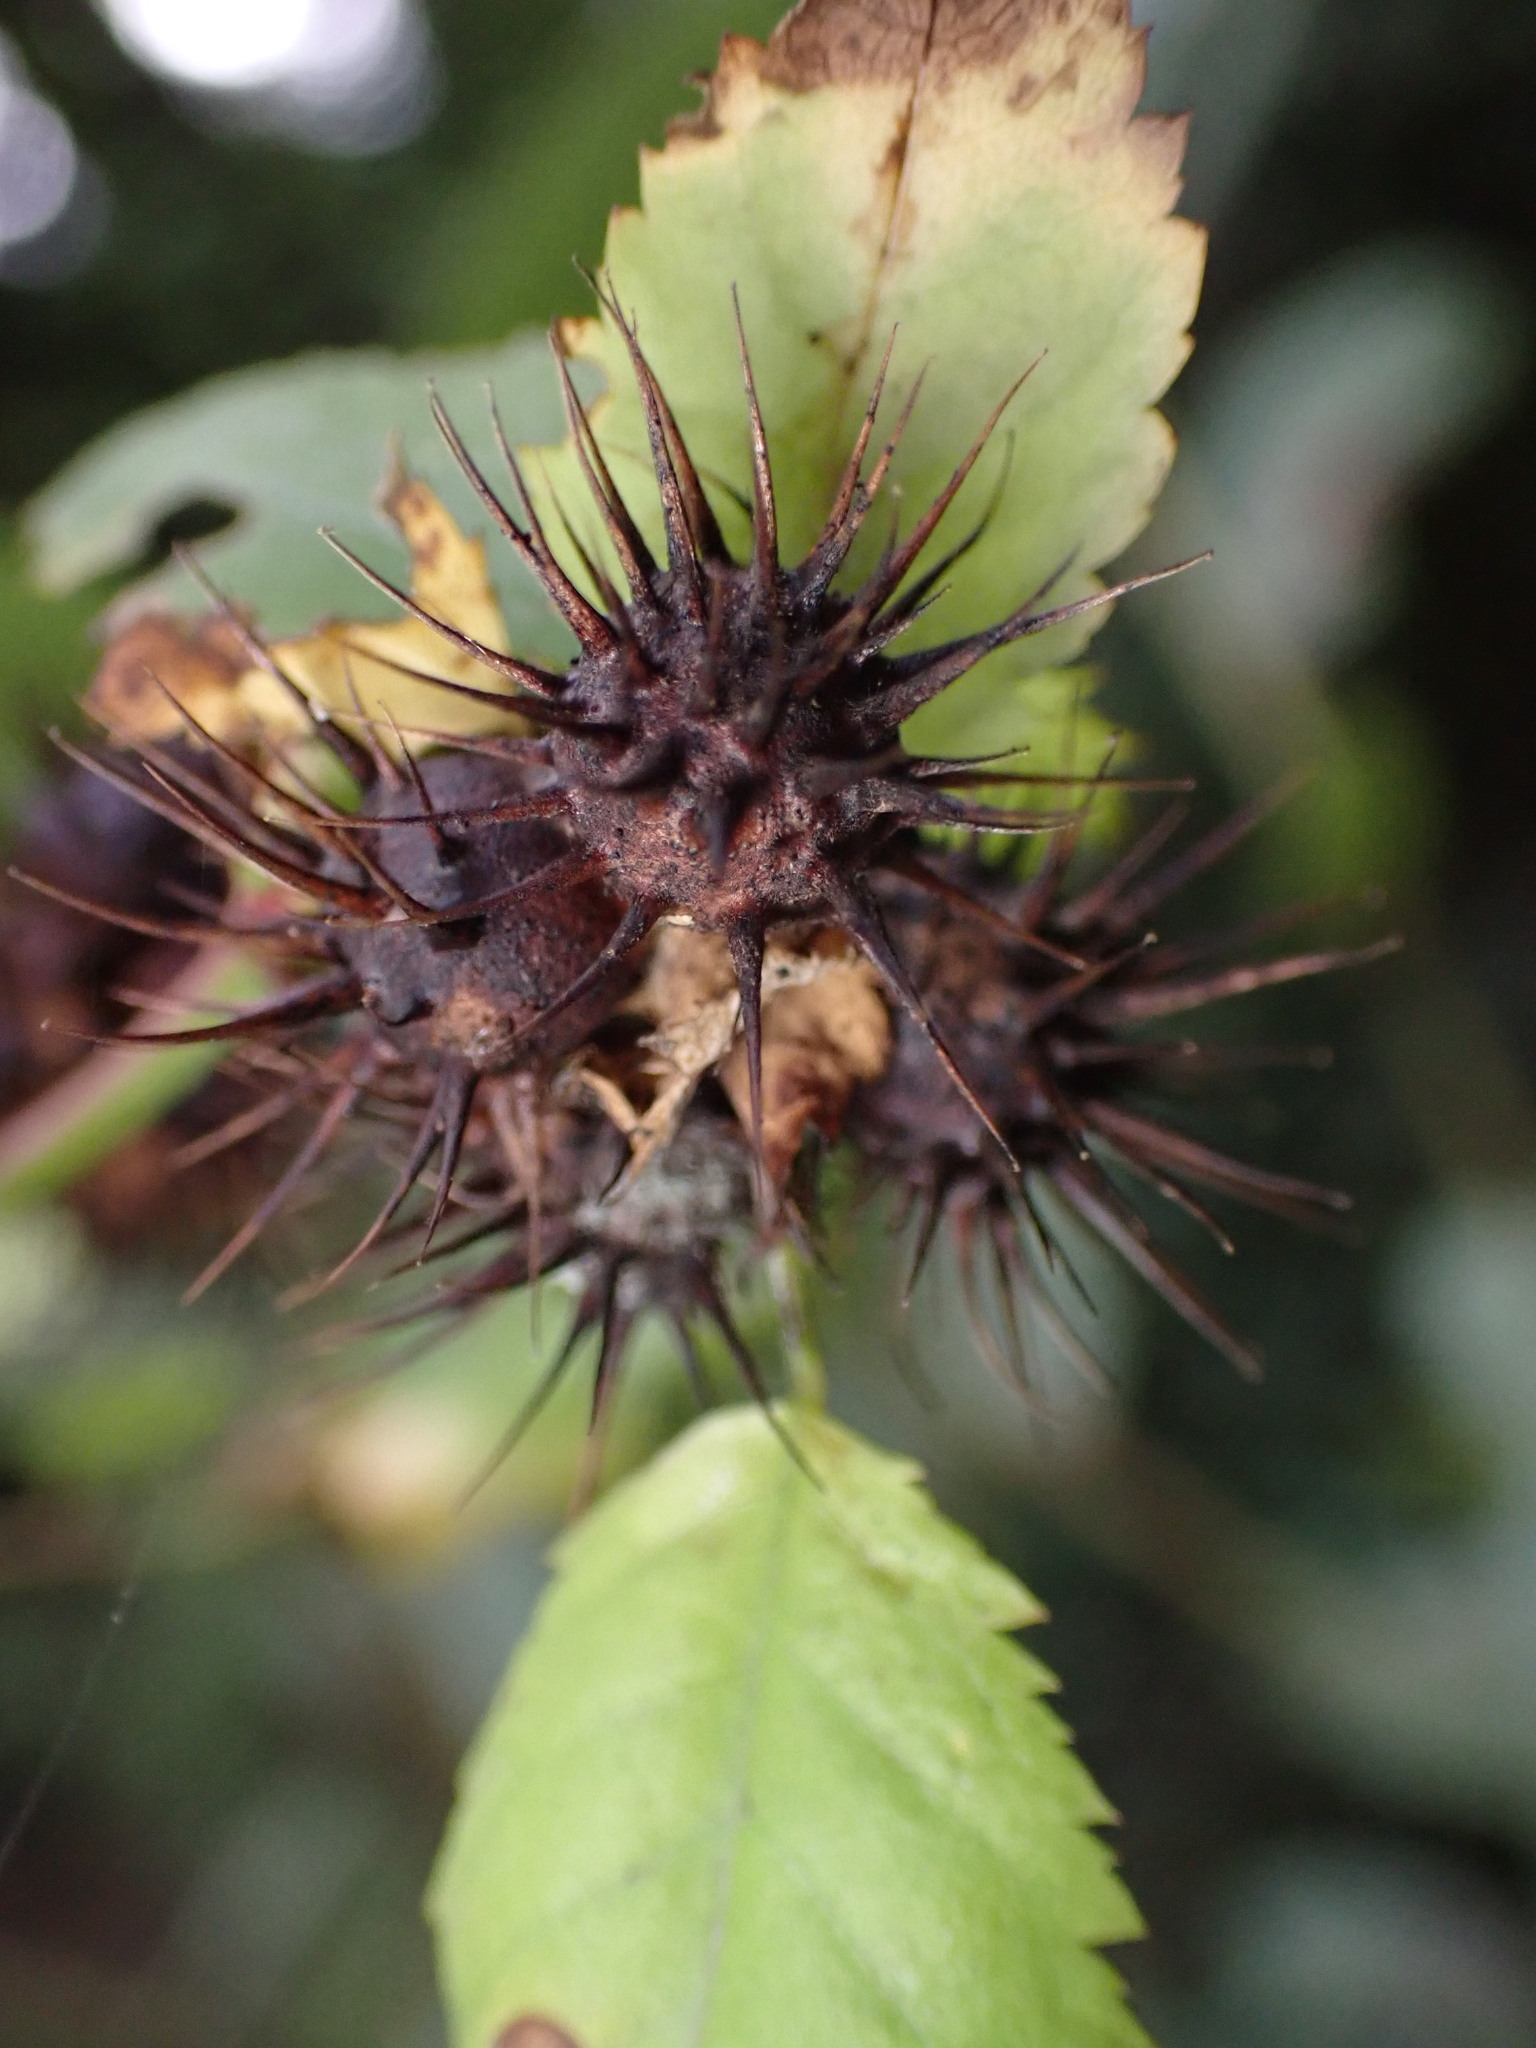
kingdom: Animalia
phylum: Arthropoda
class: Insecta
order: Hymenoptera
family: Cynipidae
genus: Diplolepis
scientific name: Diplolepis bicolor
